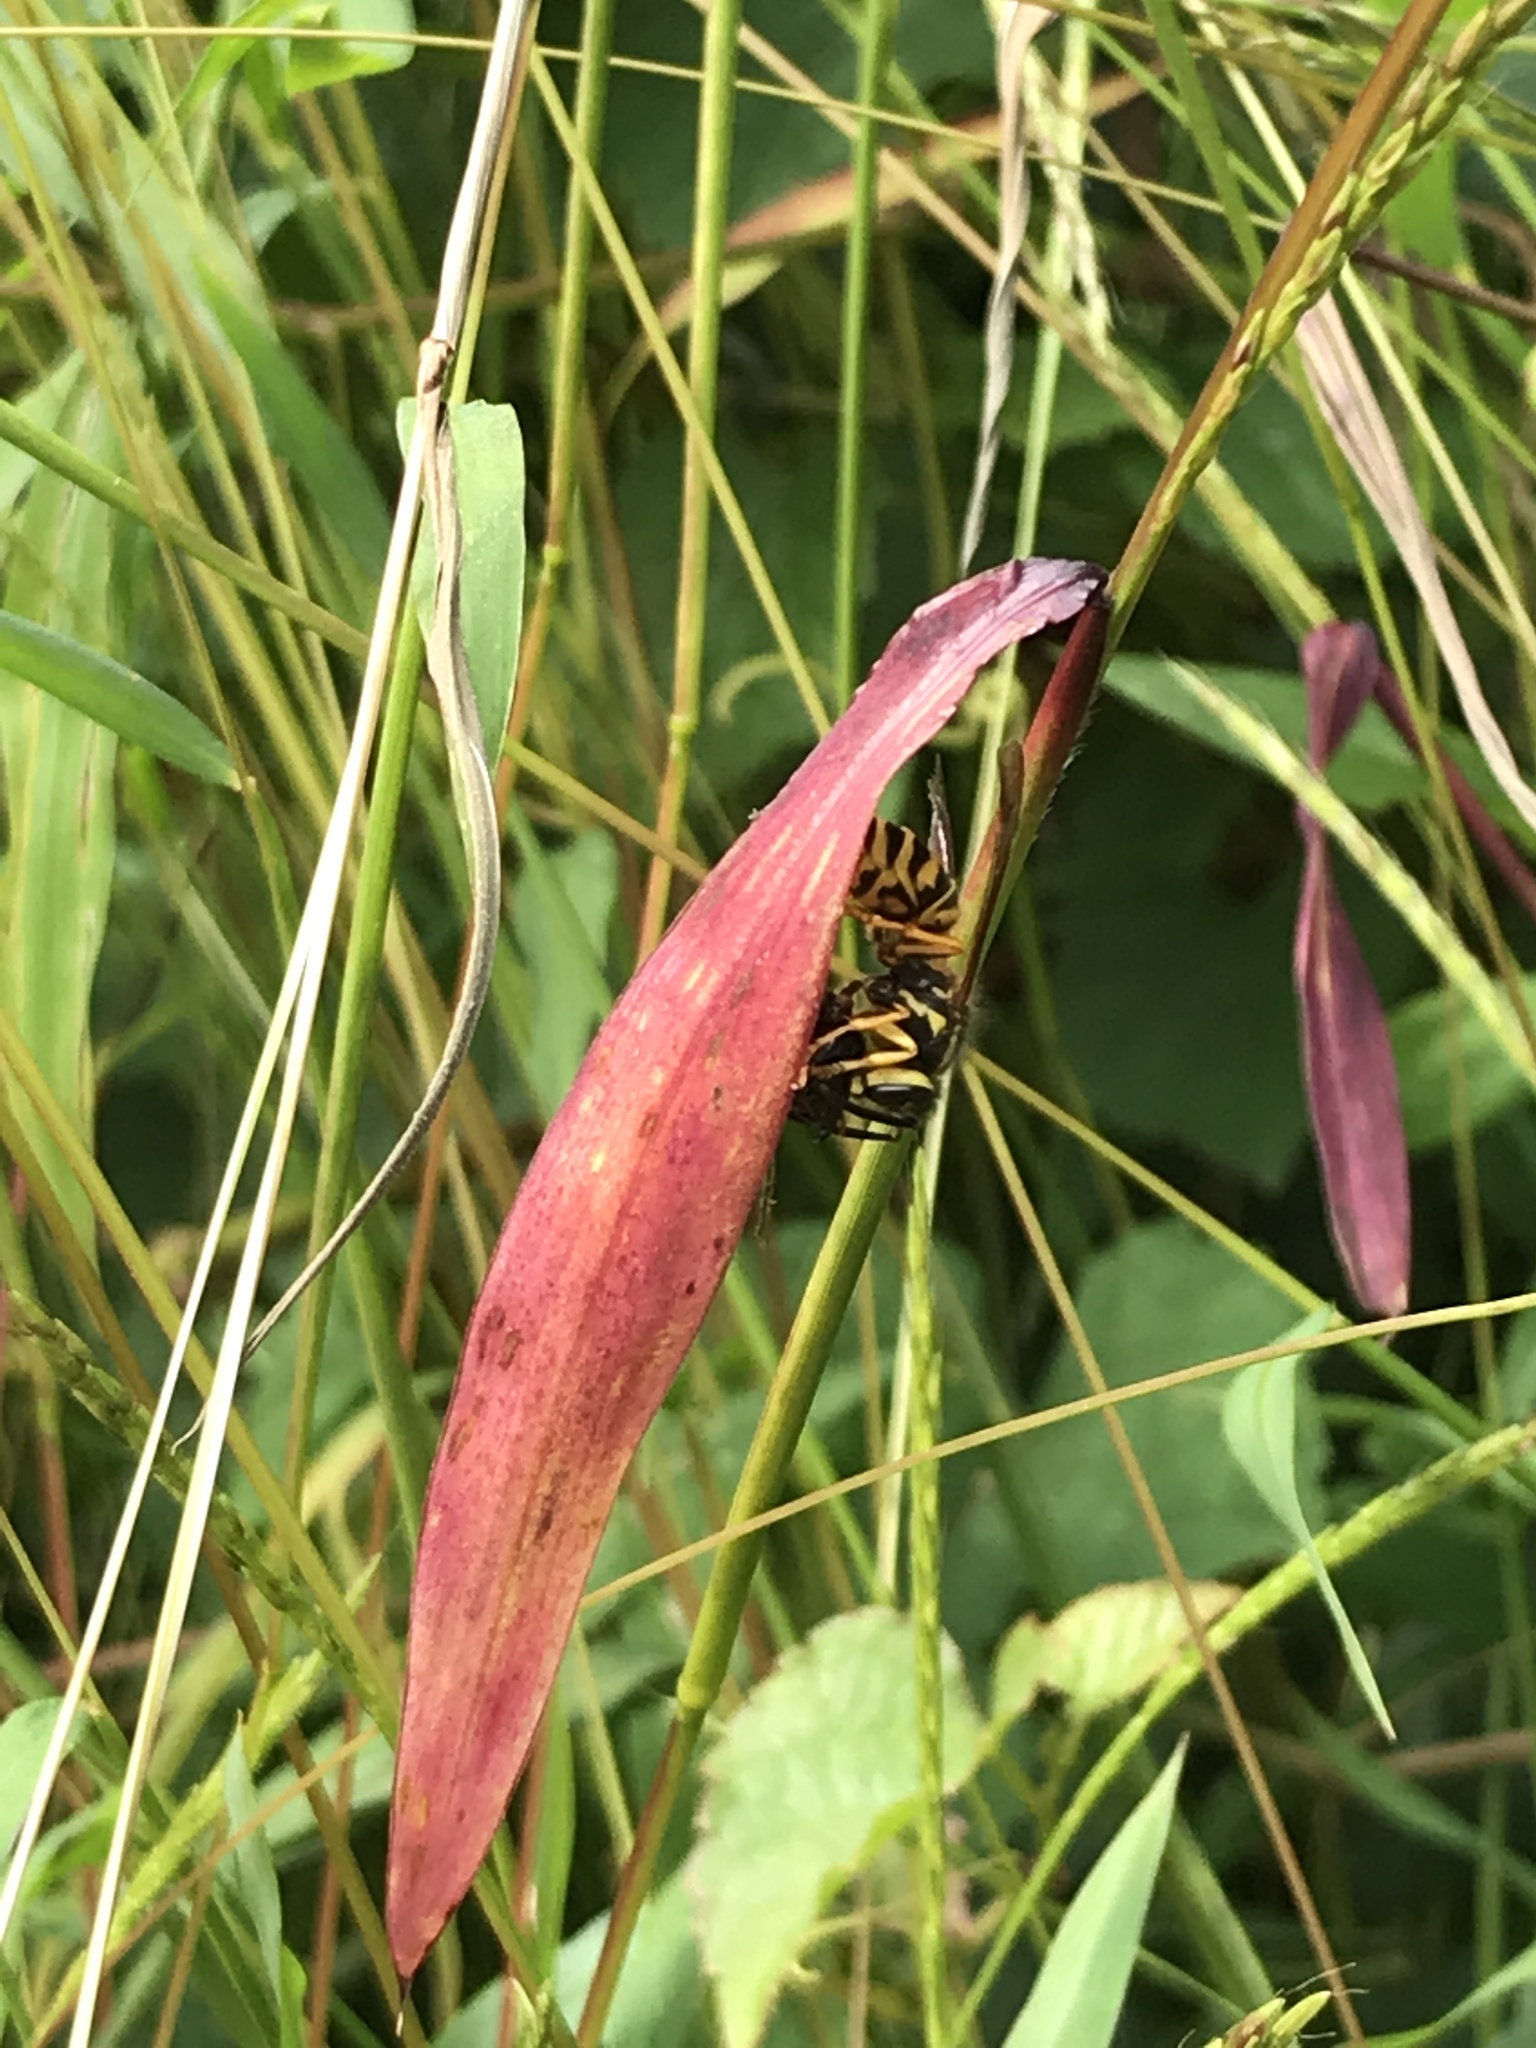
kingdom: Animalia
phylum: Arthropoda
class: Insecta
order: Hymenoptera
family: Vespidae
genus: Vespula
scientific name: Vespula squamosa
